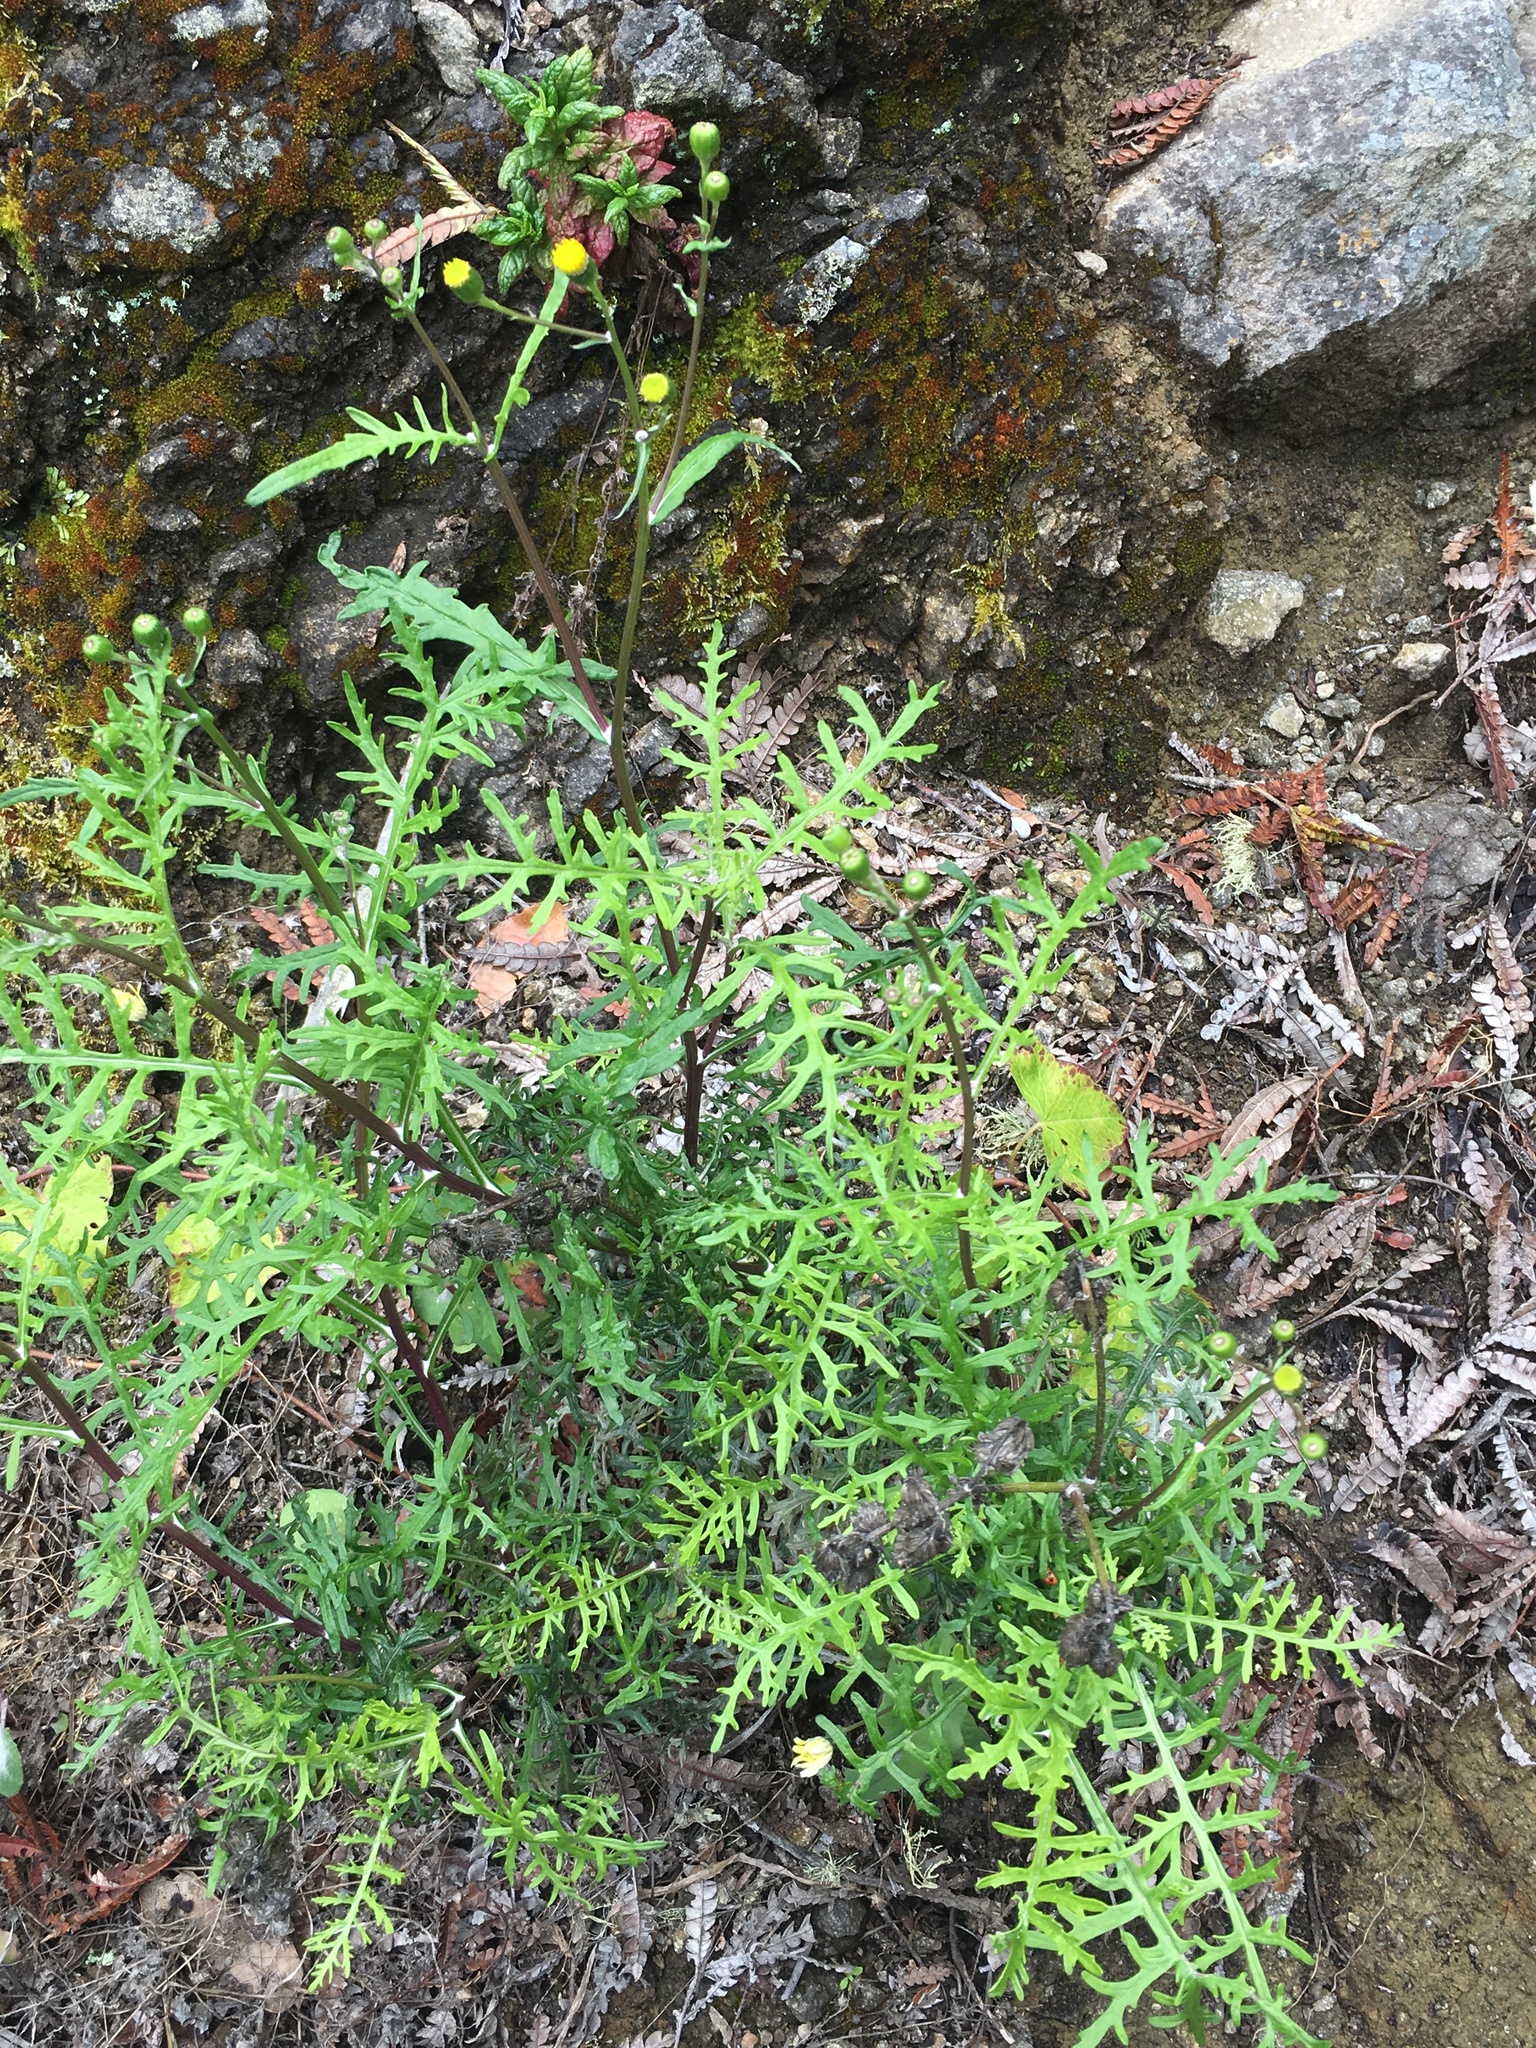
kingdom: Plantae
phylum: Tracheophyta
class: Magnoliopsida
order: Asterales
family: Asteraceae
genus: Senecio
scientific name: Senecio lyonii
